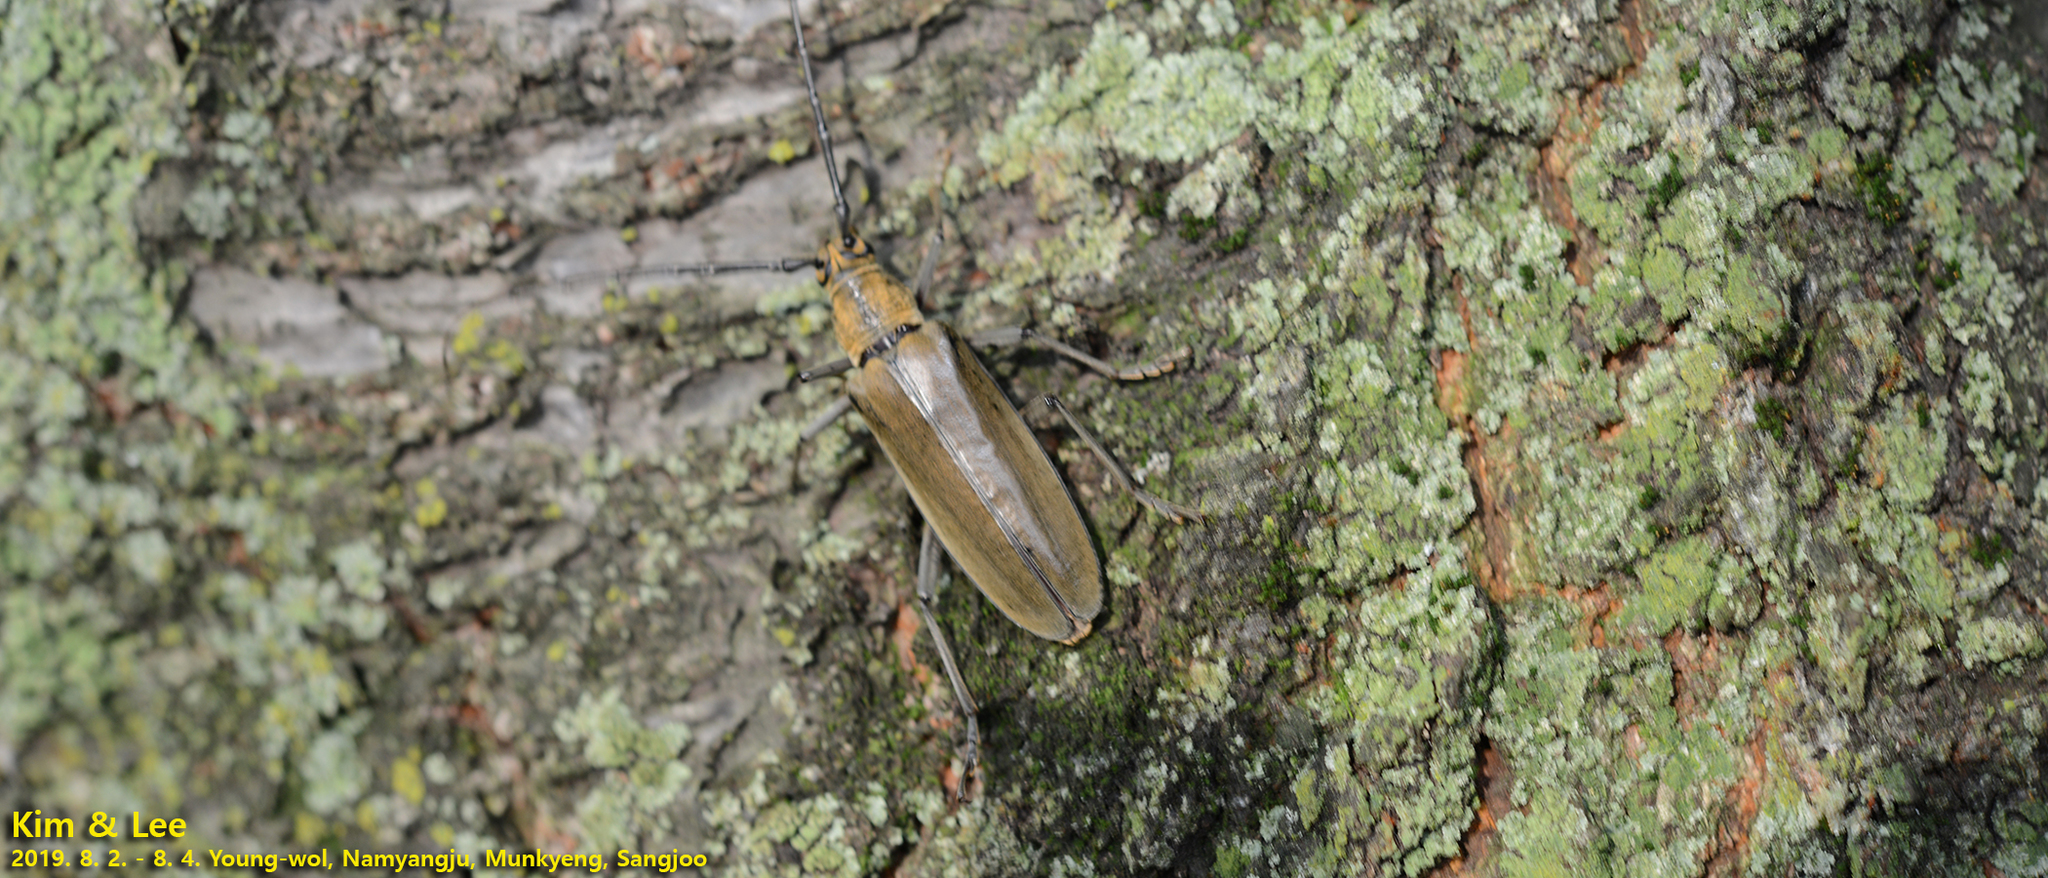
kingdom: Animalia
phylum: Arthropoda
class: Insecta
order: Coleoptera
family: Cerambycidae
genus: Neocerambyx
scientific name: Neocerambyx raddei
